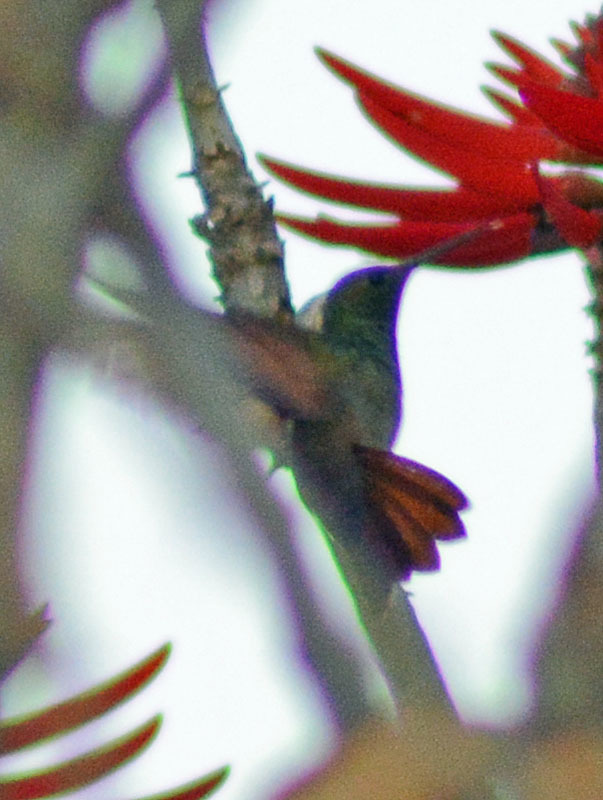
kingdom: Animalia
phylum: Chordata
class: Aves
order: Apodiformes
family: Trochilidae
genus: Saucerottia
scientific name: Saucerottia beryllina
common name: Berylline hummingbird
